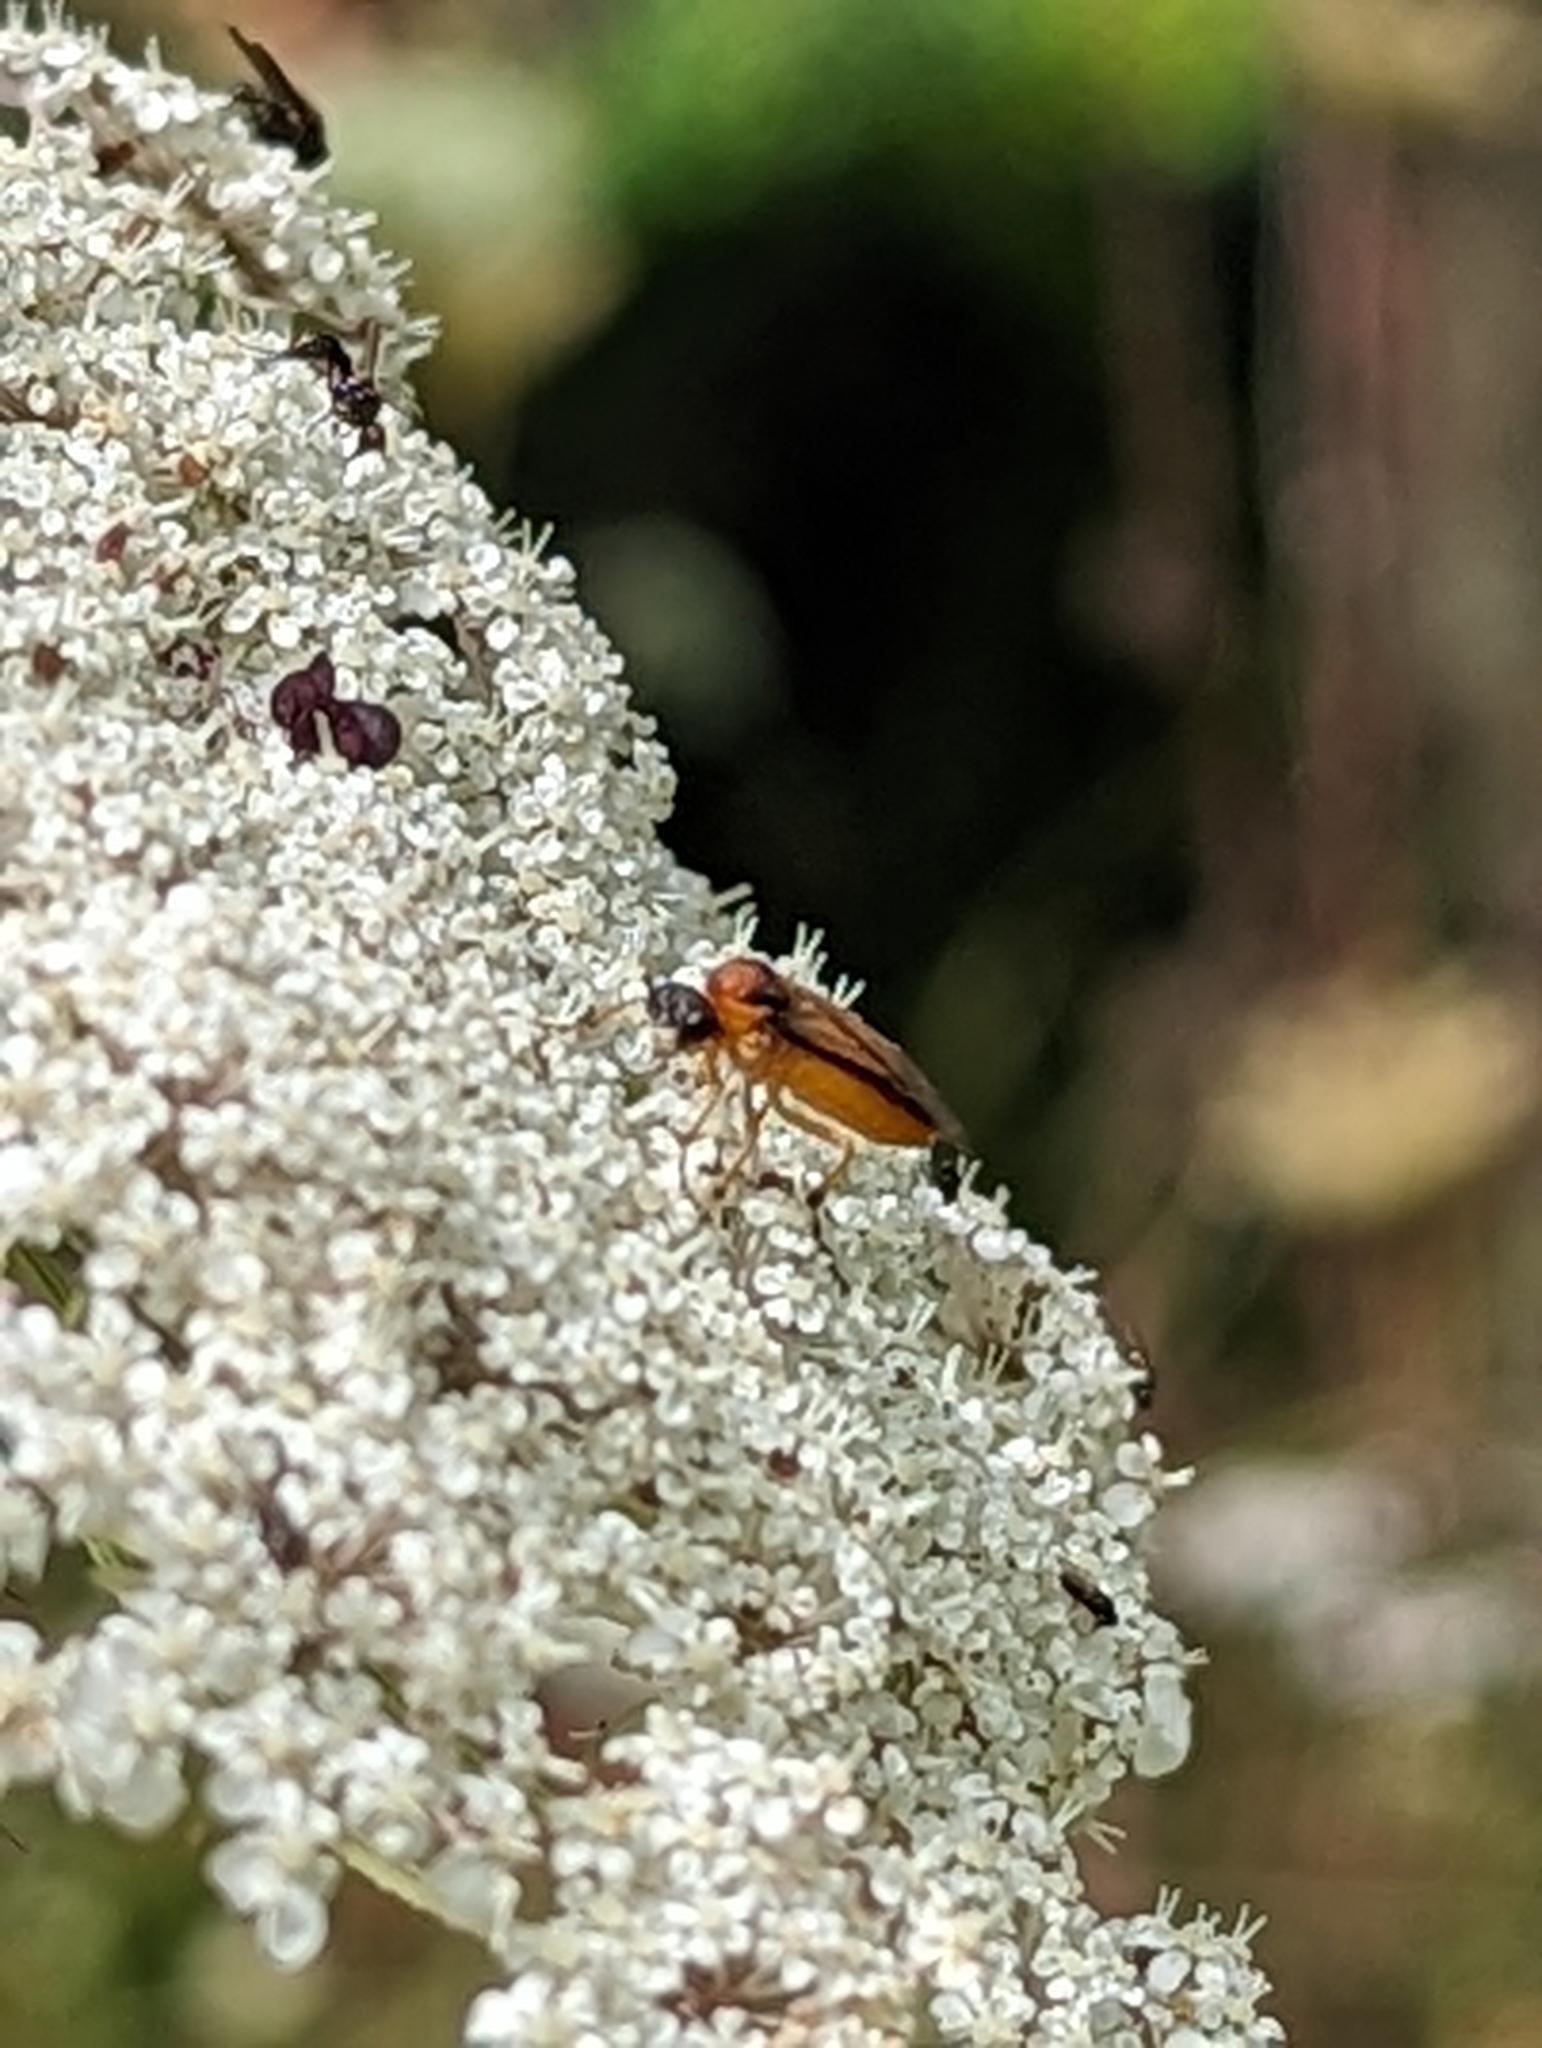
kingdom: Animalia
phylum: Arthropoda
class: Insecta
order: Hymenoptera
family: Tenthredinidae
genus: Athalia
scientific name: Athalia rosae
